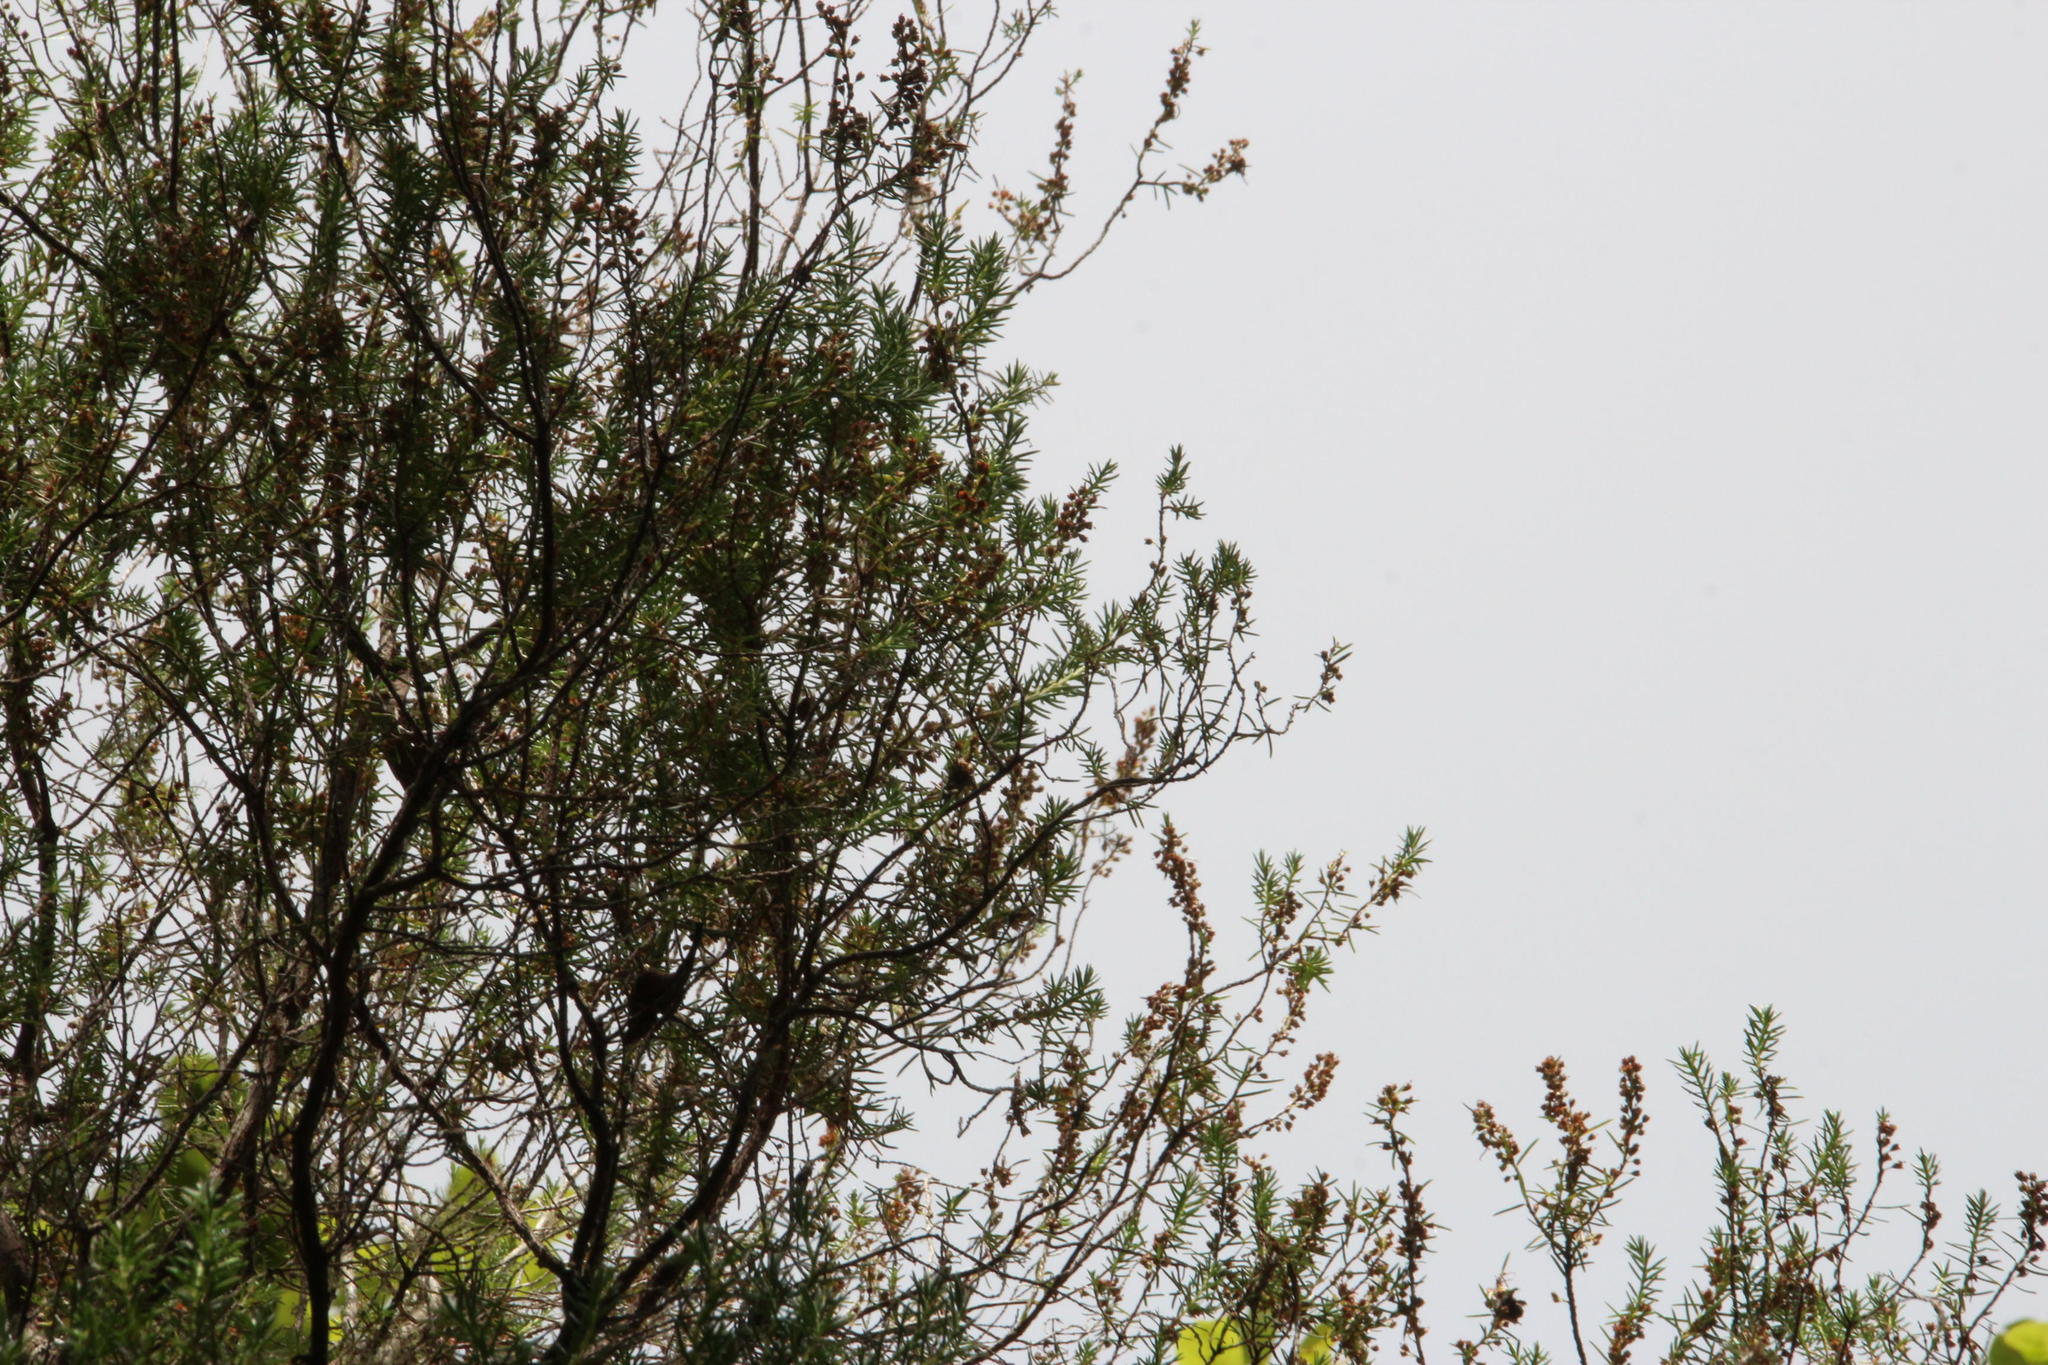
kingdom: Plantae
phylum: Tracheophyta
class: Magnoliopsida
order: Ericales
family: Ericaceae
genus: Erica
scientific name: Erica platycodon
